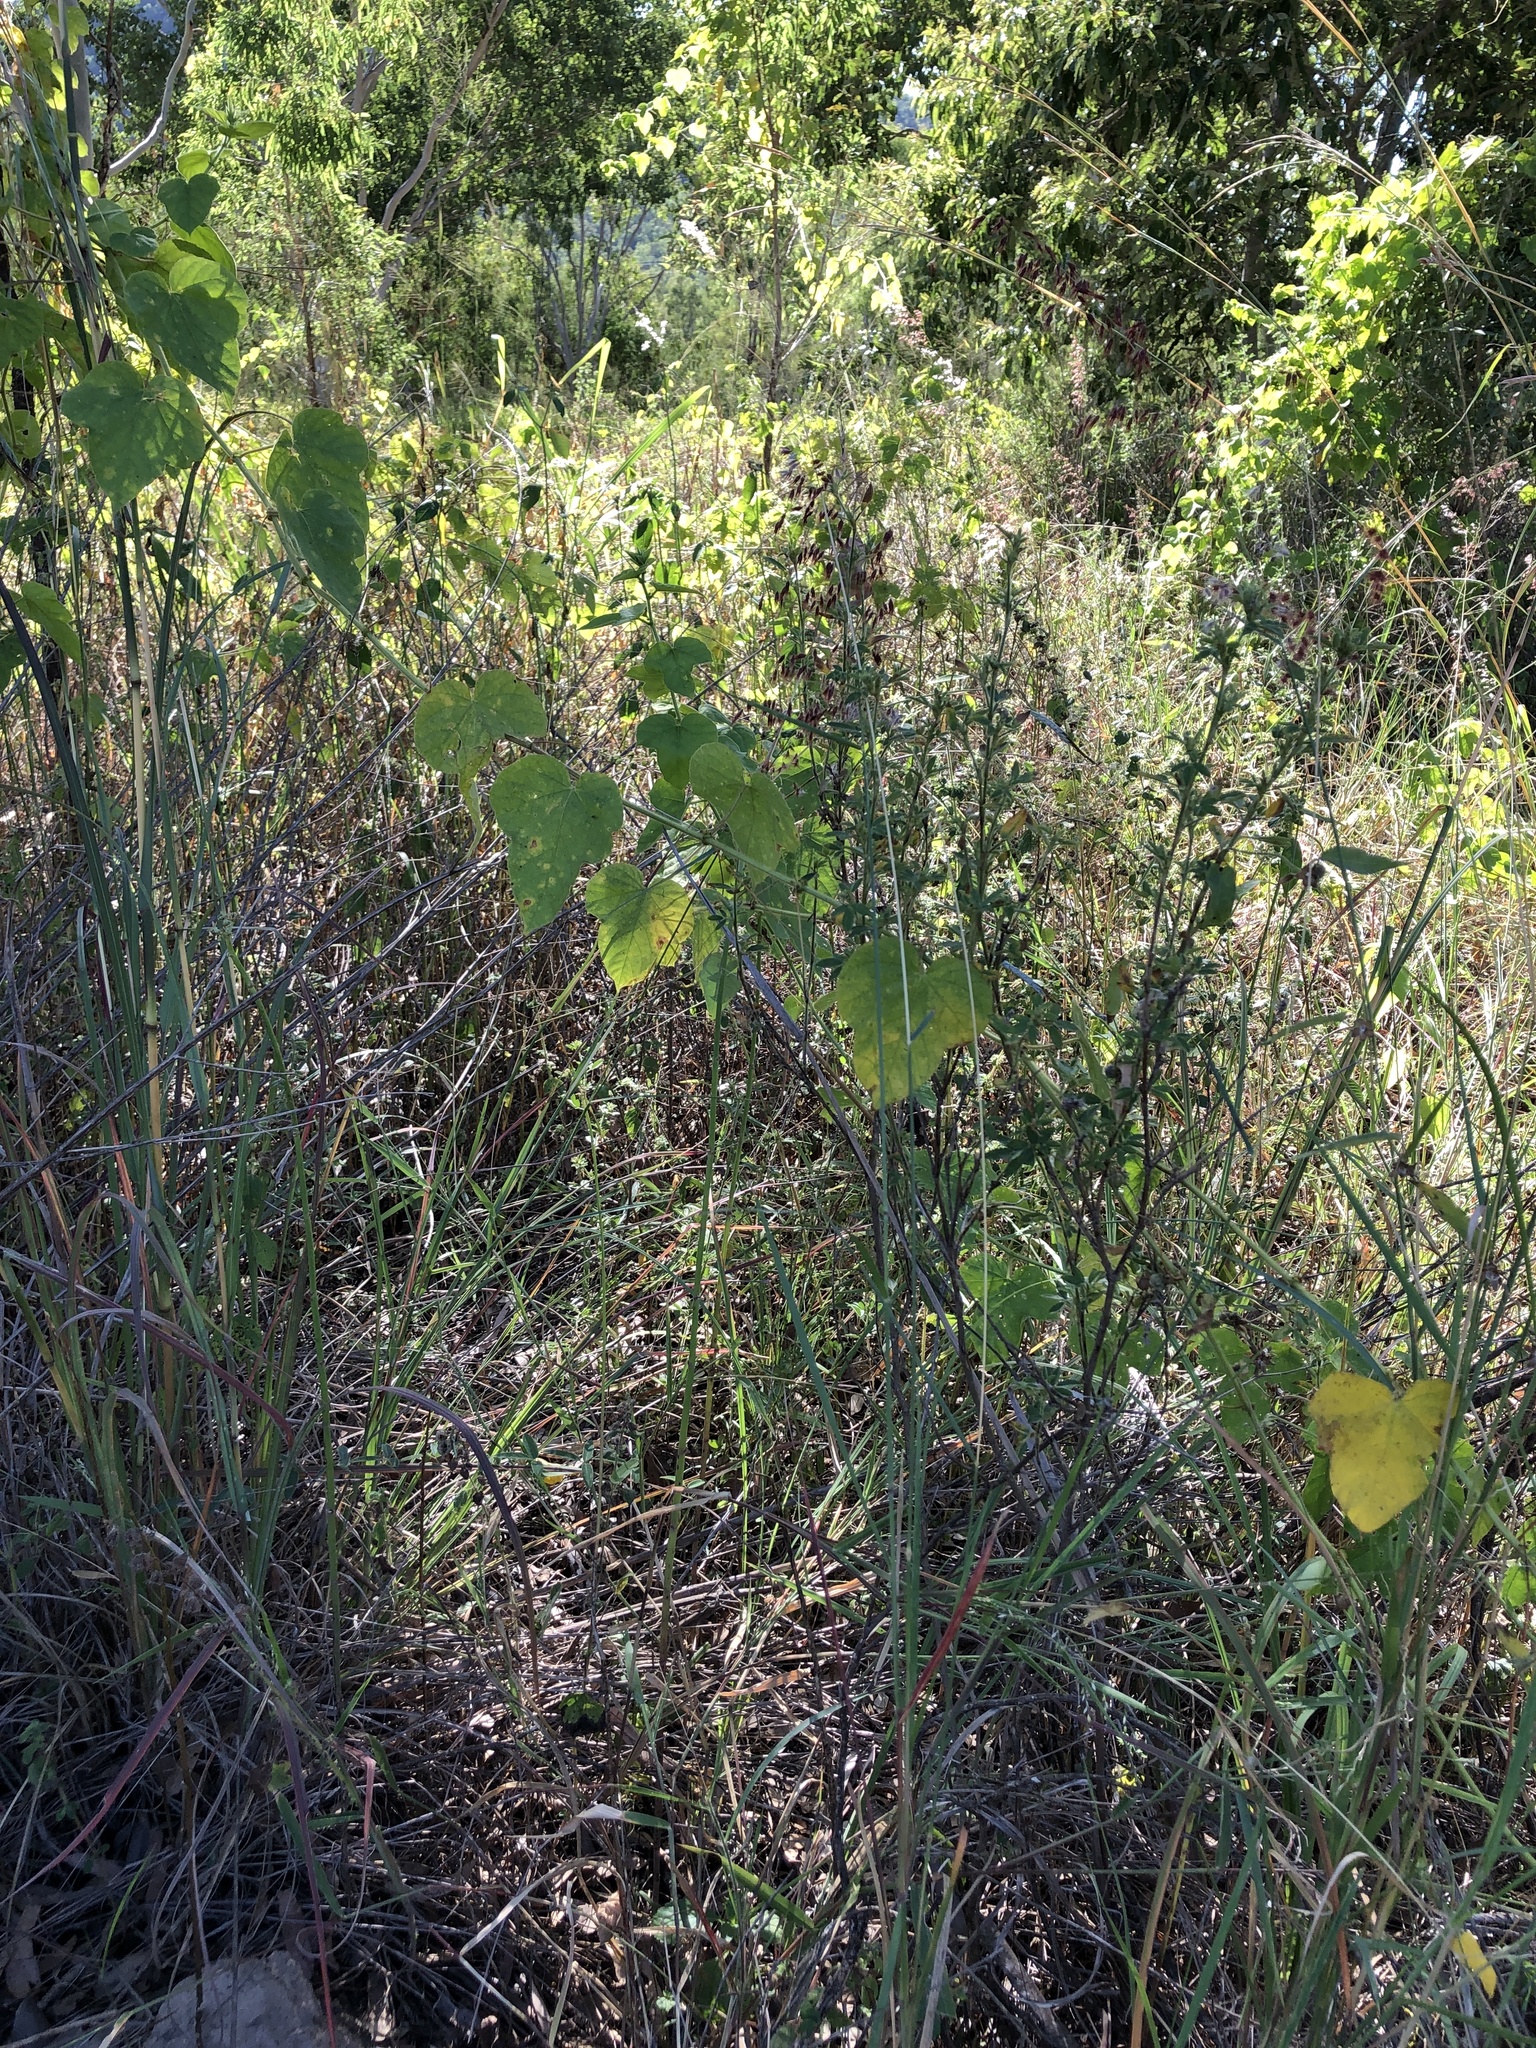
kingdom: Plantae
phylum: Tracheophyta
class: Magnoliopsida
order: Malpighiales
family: Passifloraceae
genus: Passiflora
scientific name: Passiflora foetida
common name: Fetid passionflower
